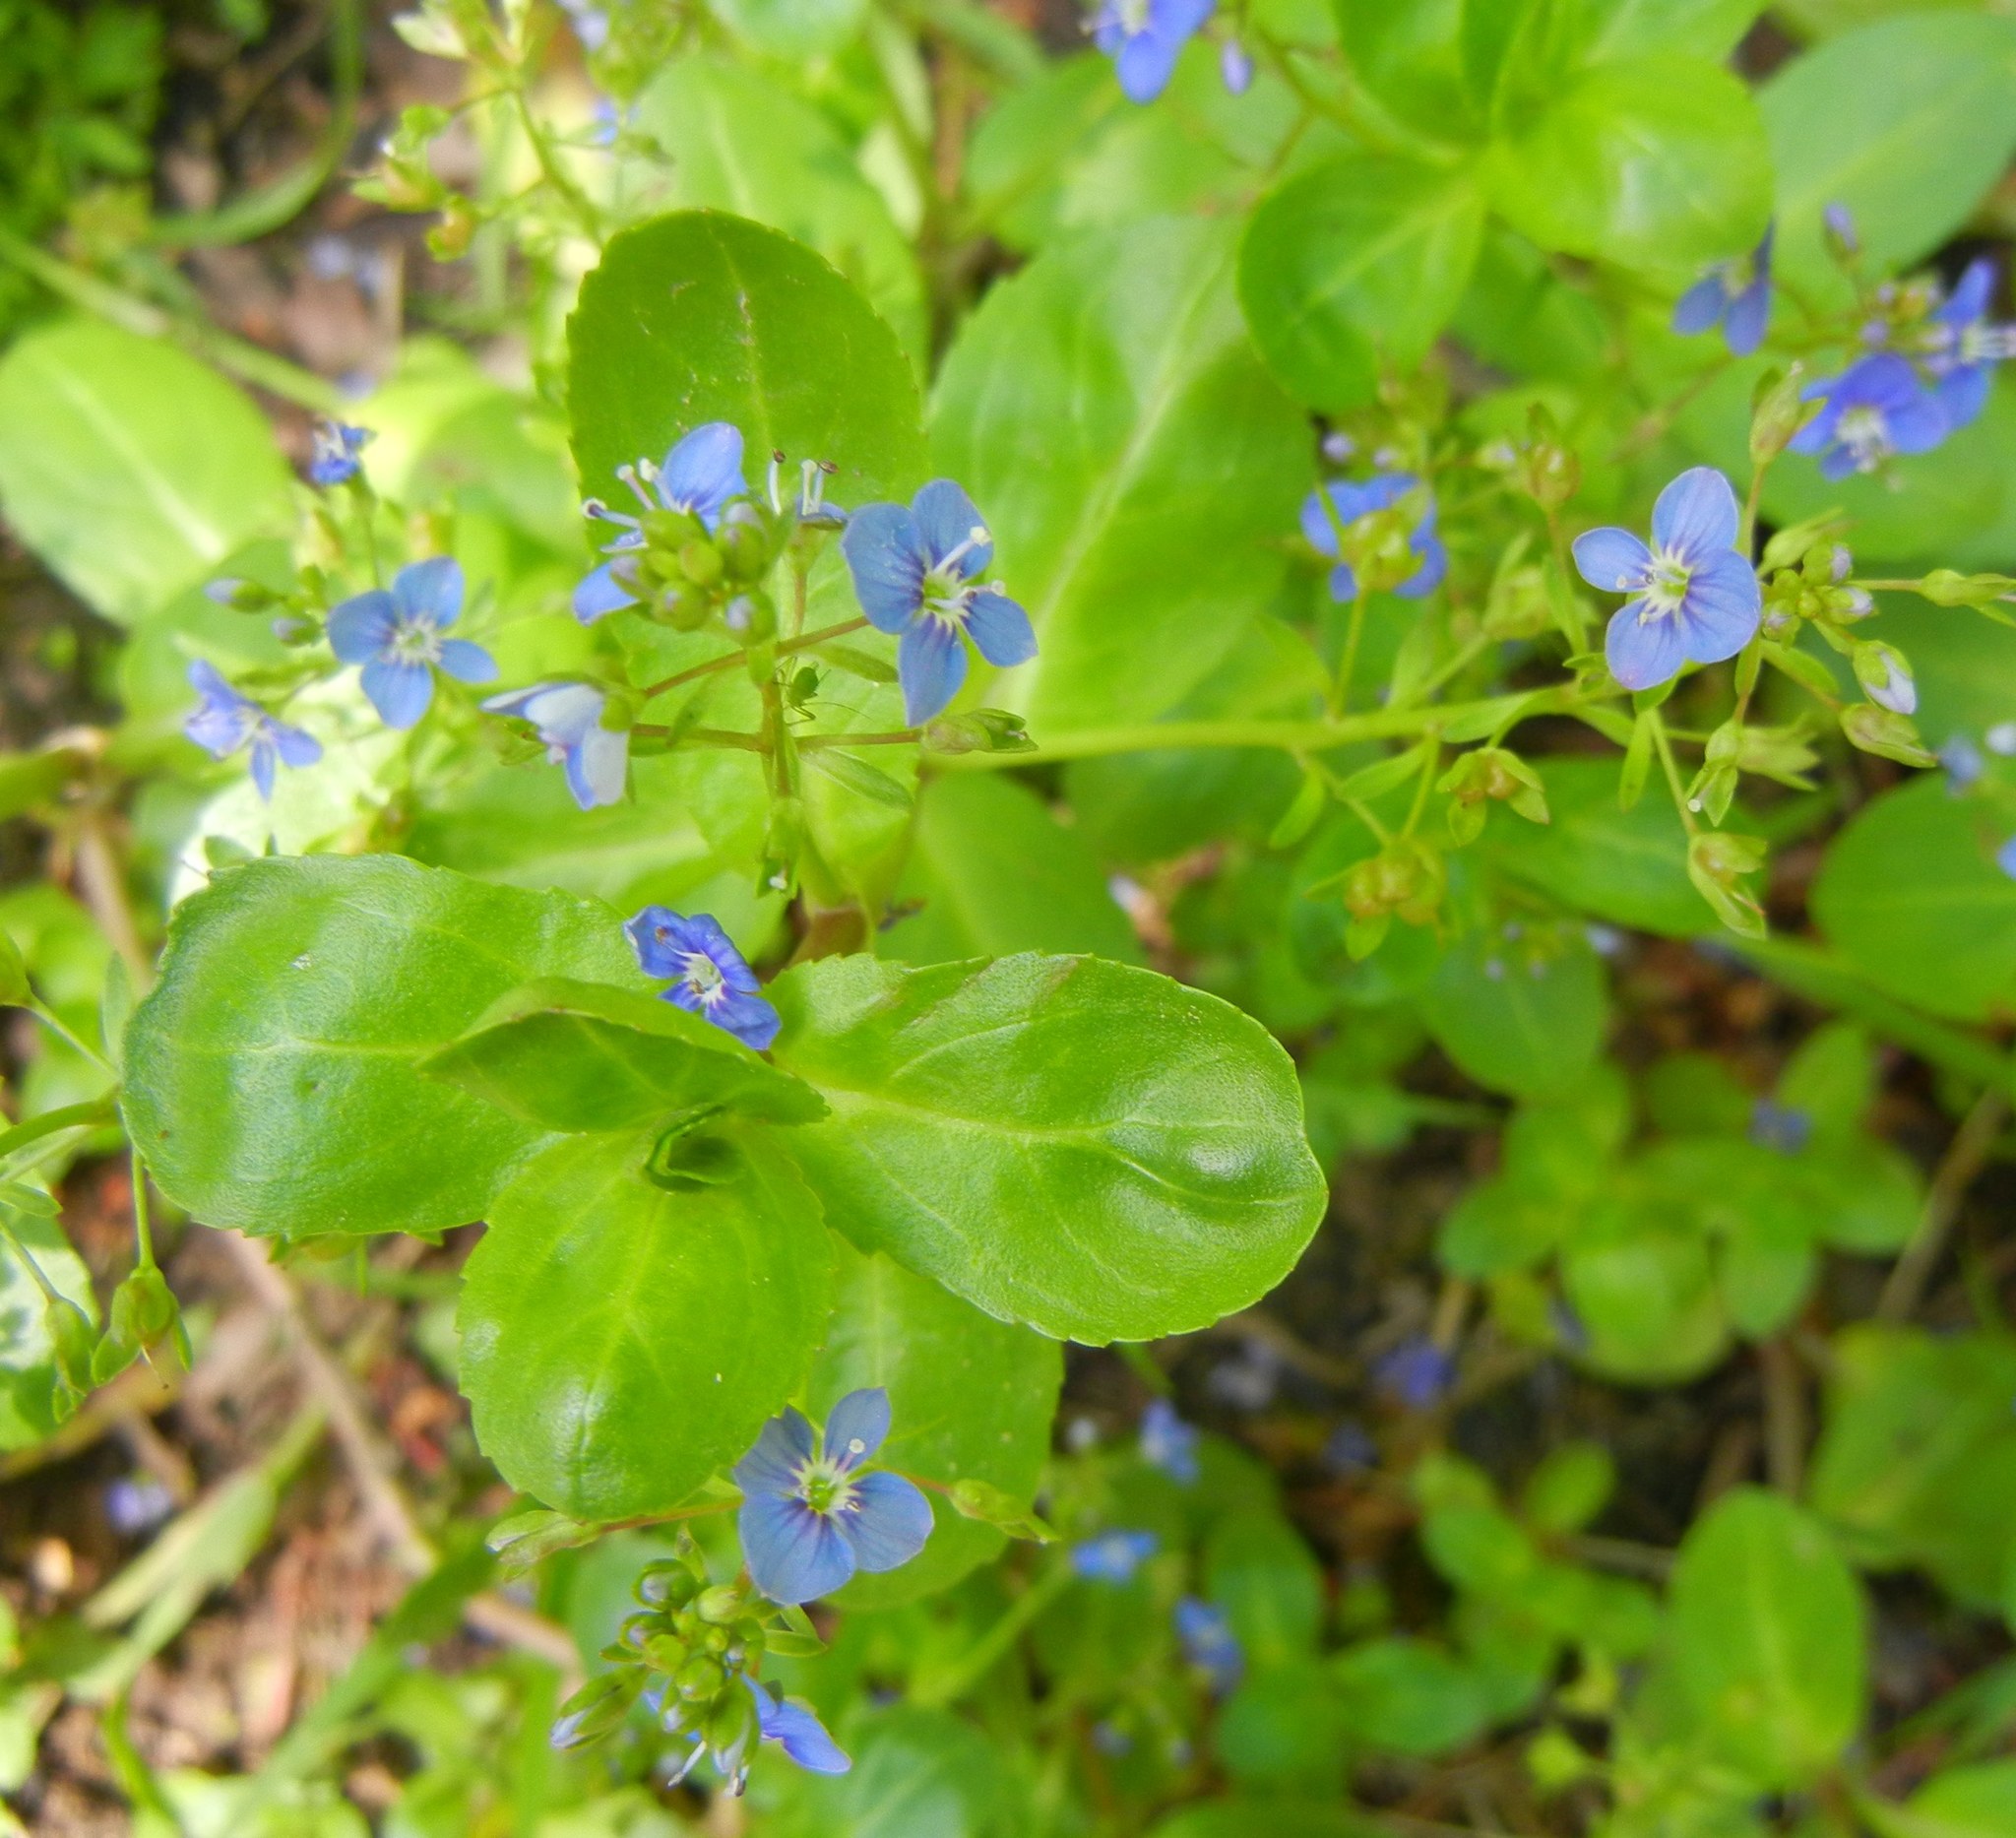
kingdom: Plantae
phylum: Tracheophyta
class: Magnoliopsida
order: Lamiales
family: Plantaginaceae
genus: Veronica
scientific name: Veronica beccabunga
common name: Brooklime
